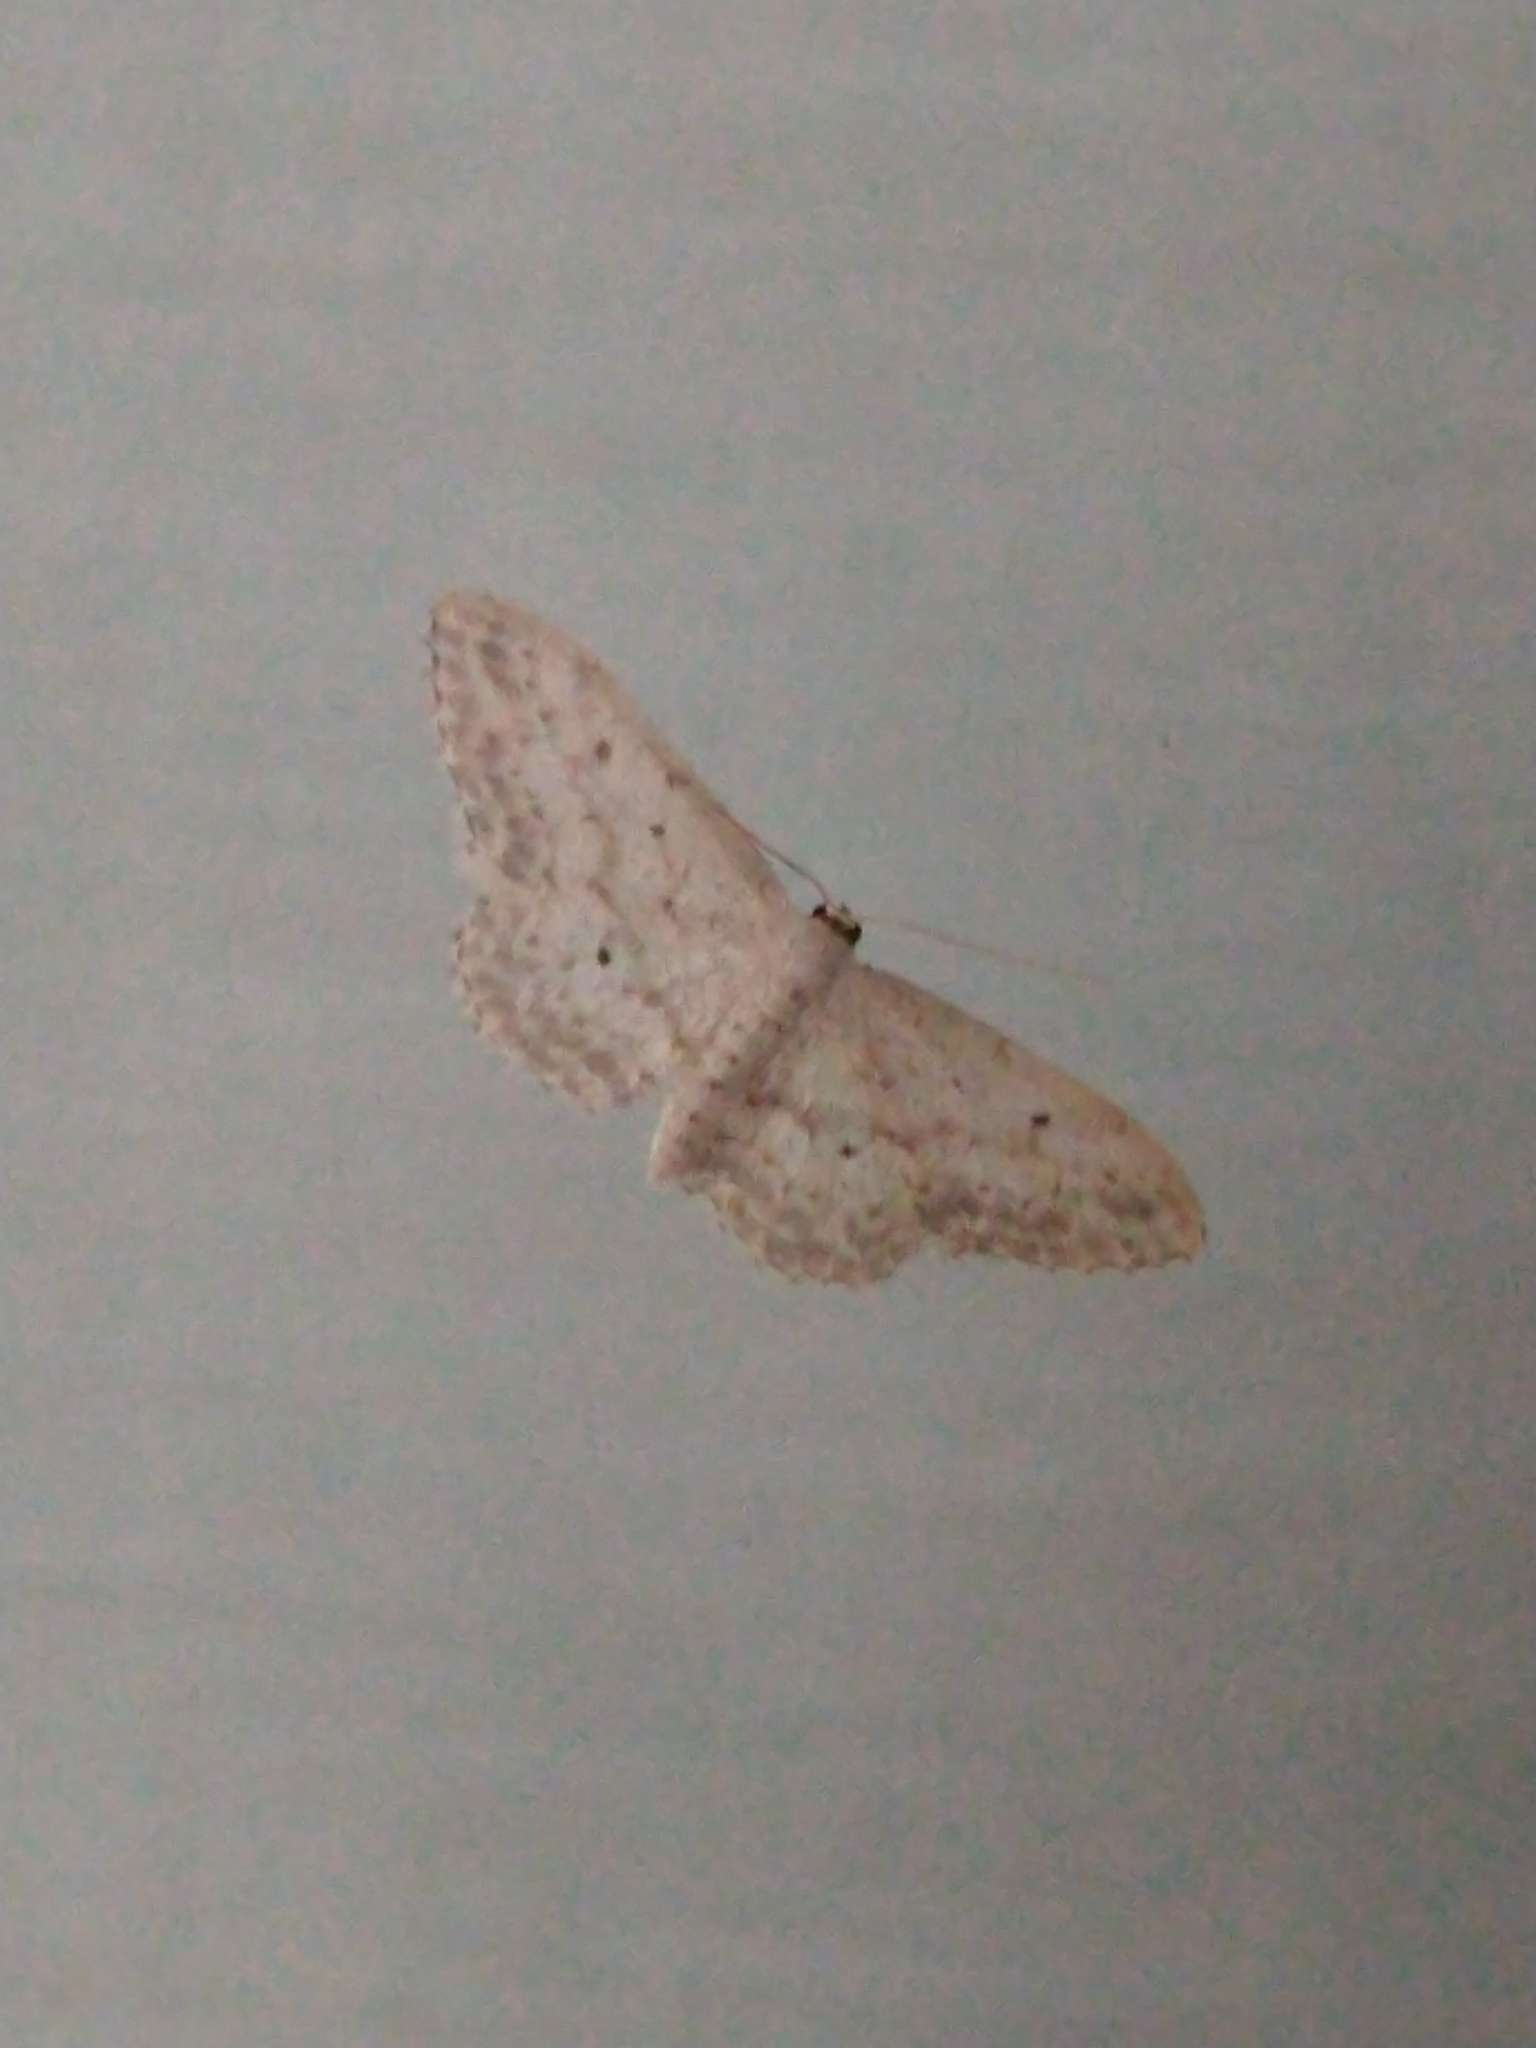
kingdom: Animalia
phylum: Arthropoda
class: Insecta
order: Lepidoptera
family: Geometridae
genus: Idaea
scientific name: Idaea seriata
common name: Small dusty wave
